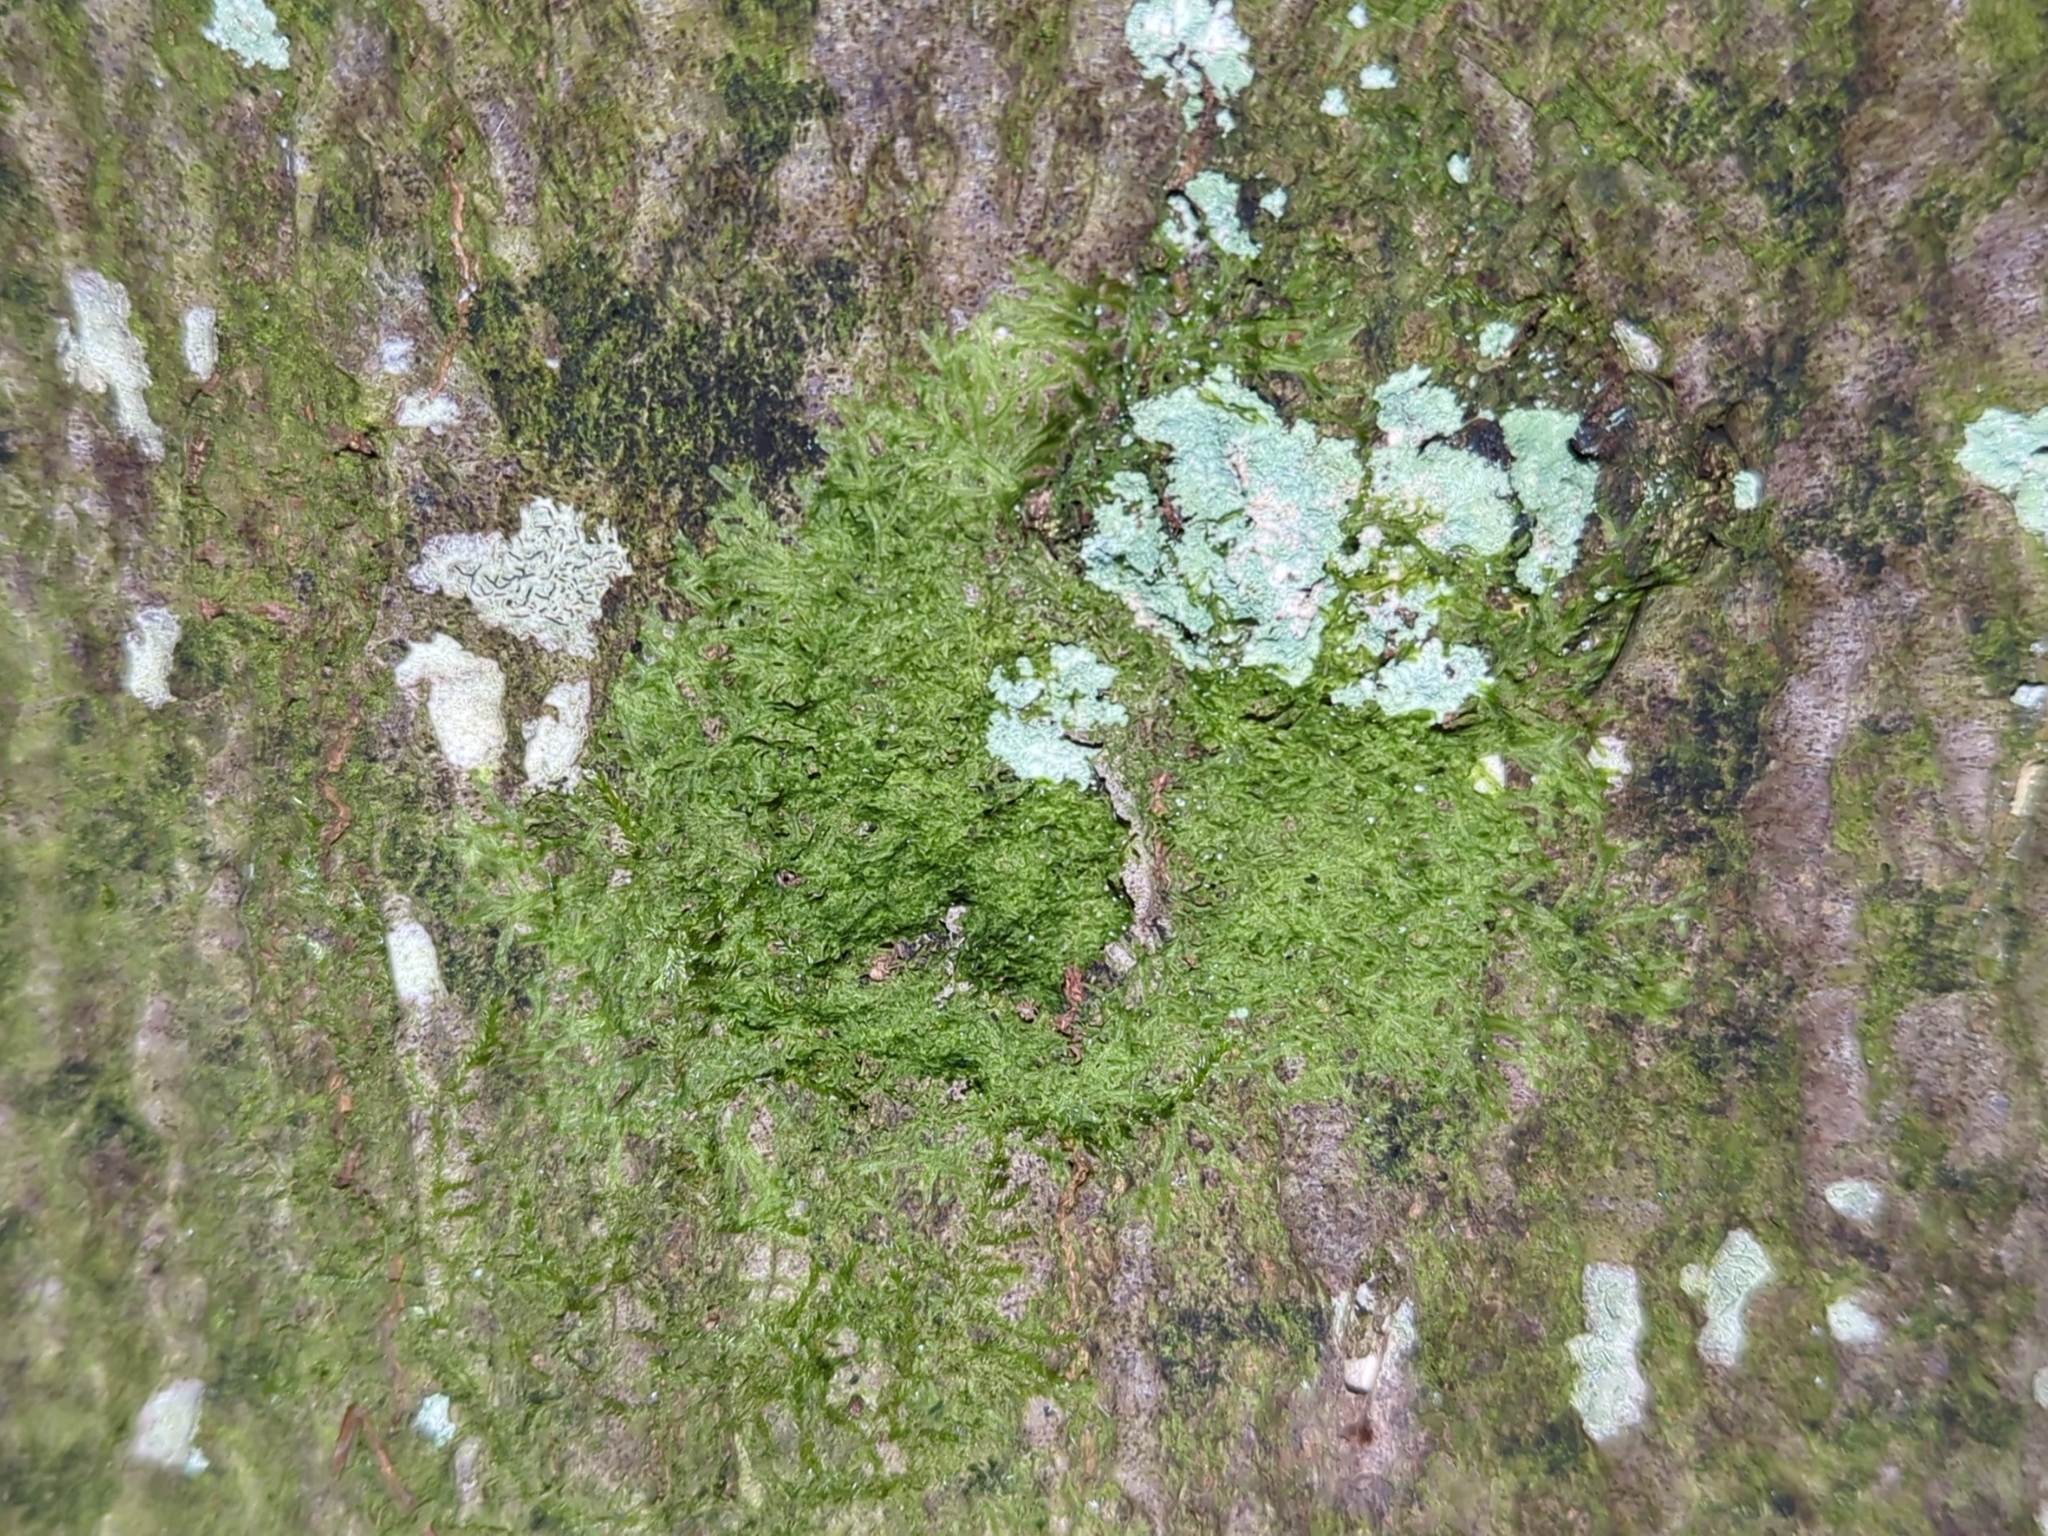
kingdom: Plantae
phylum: Marchantiophyta
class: Jungermanniopsida
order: Metzgeriales
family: Metzgeriaceae
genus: Metzgeria
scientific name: Metzgeria furcata
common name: Forked veilwort
